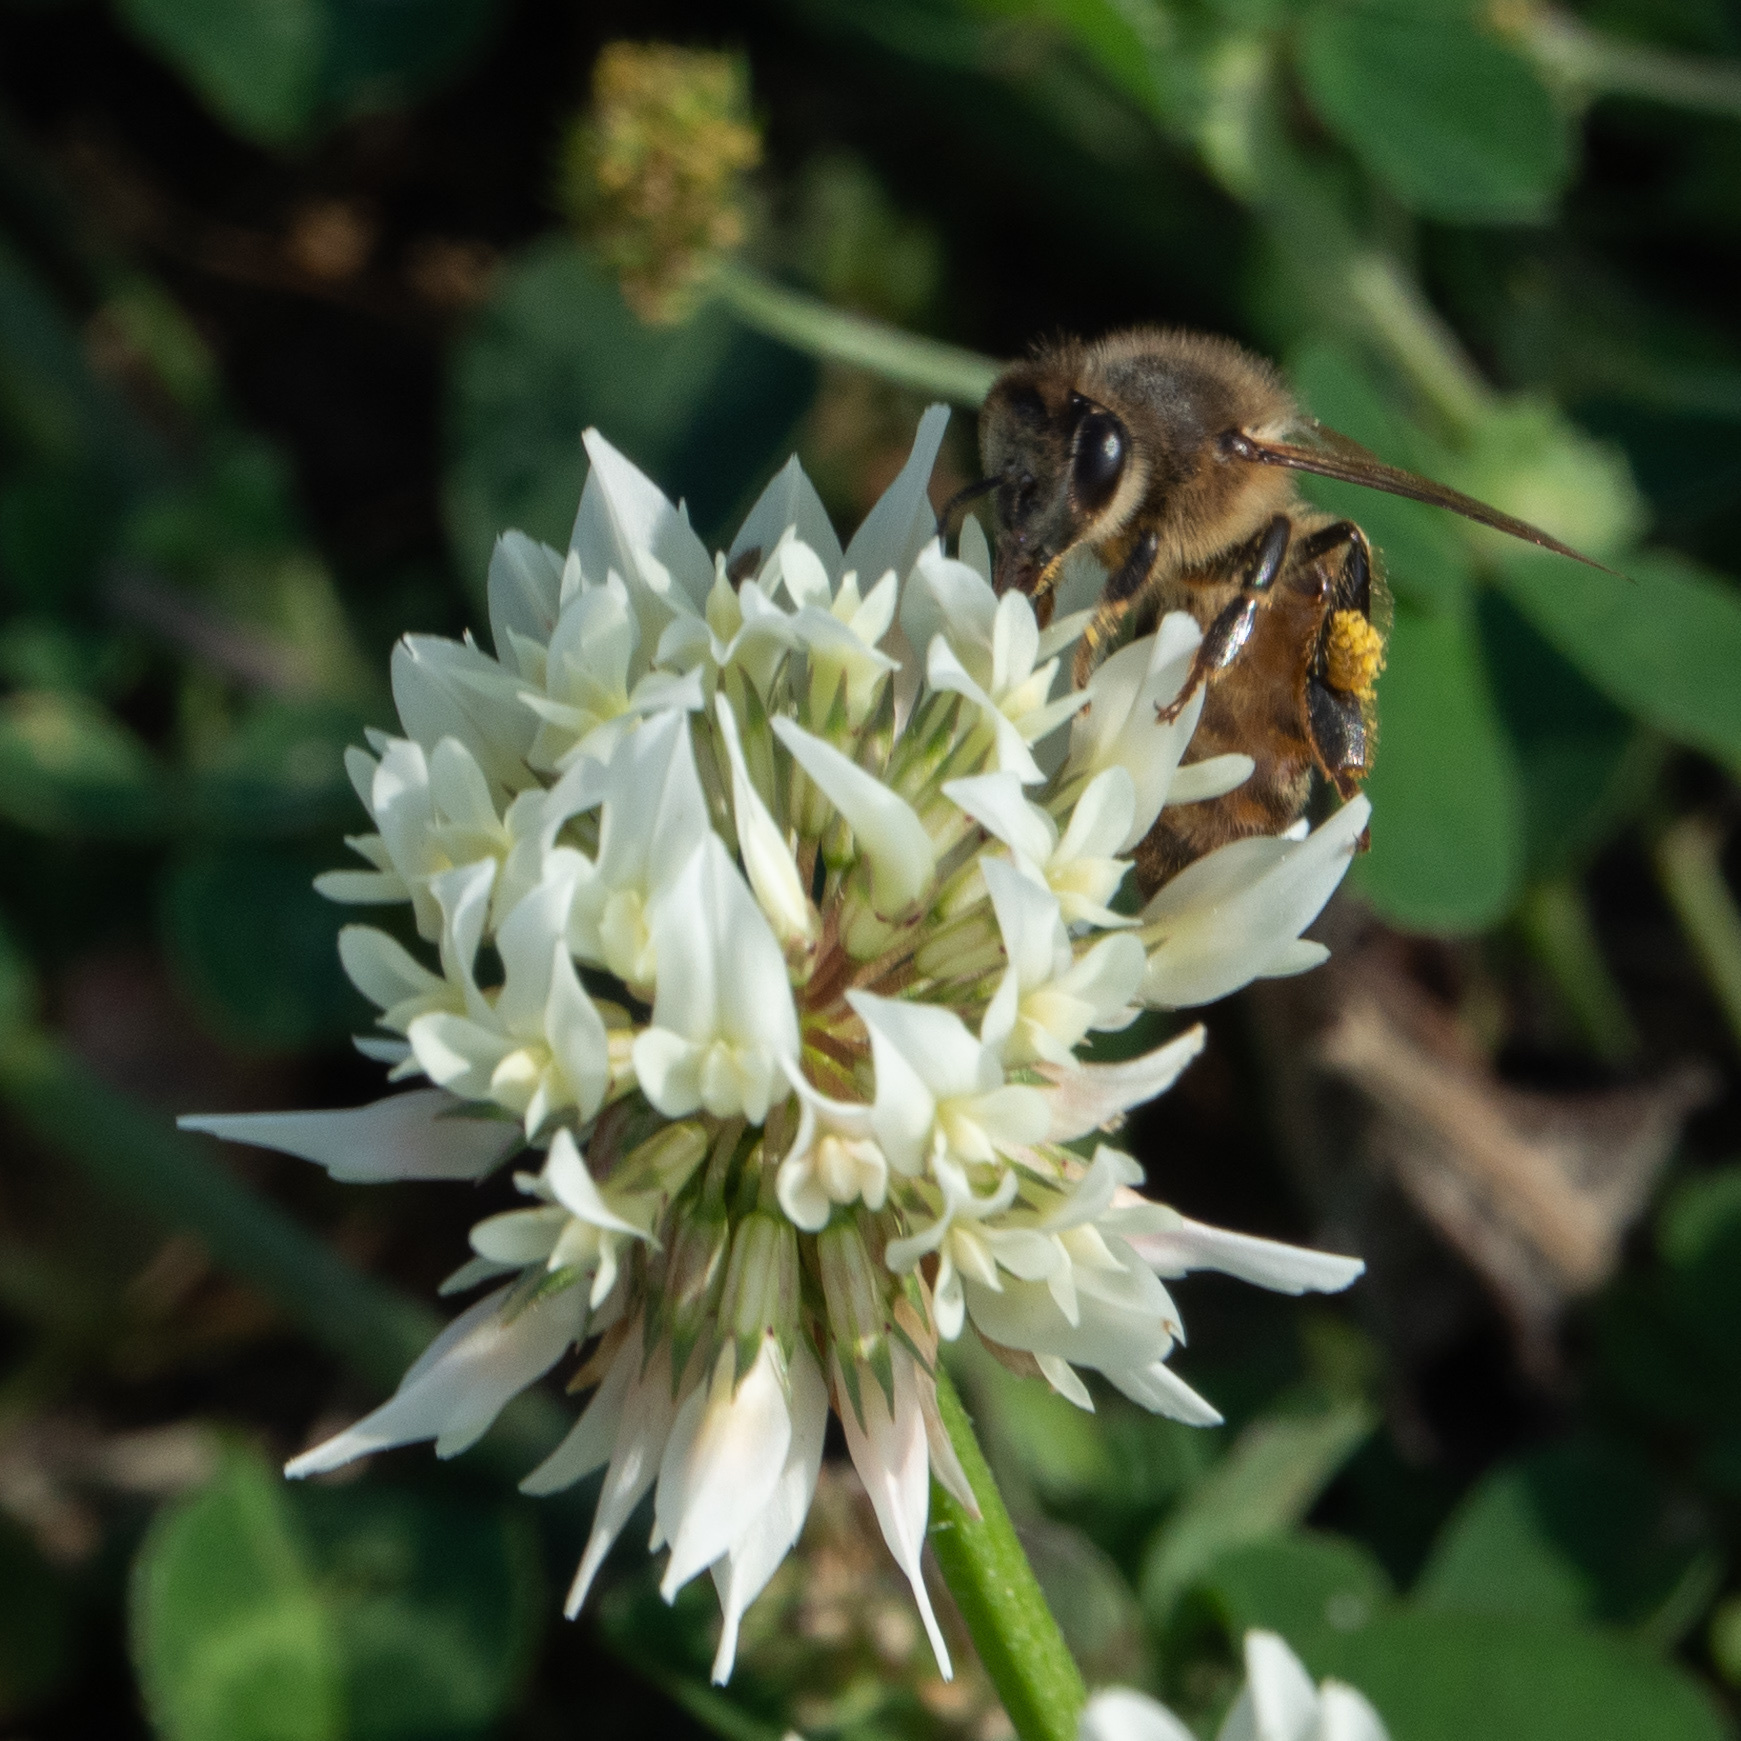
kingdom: Animalia
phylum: Arthropoda
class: Insecta
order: Hymenoptera
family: Apidae
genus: Apis
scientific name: Apis mellifera
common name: Honey bee
